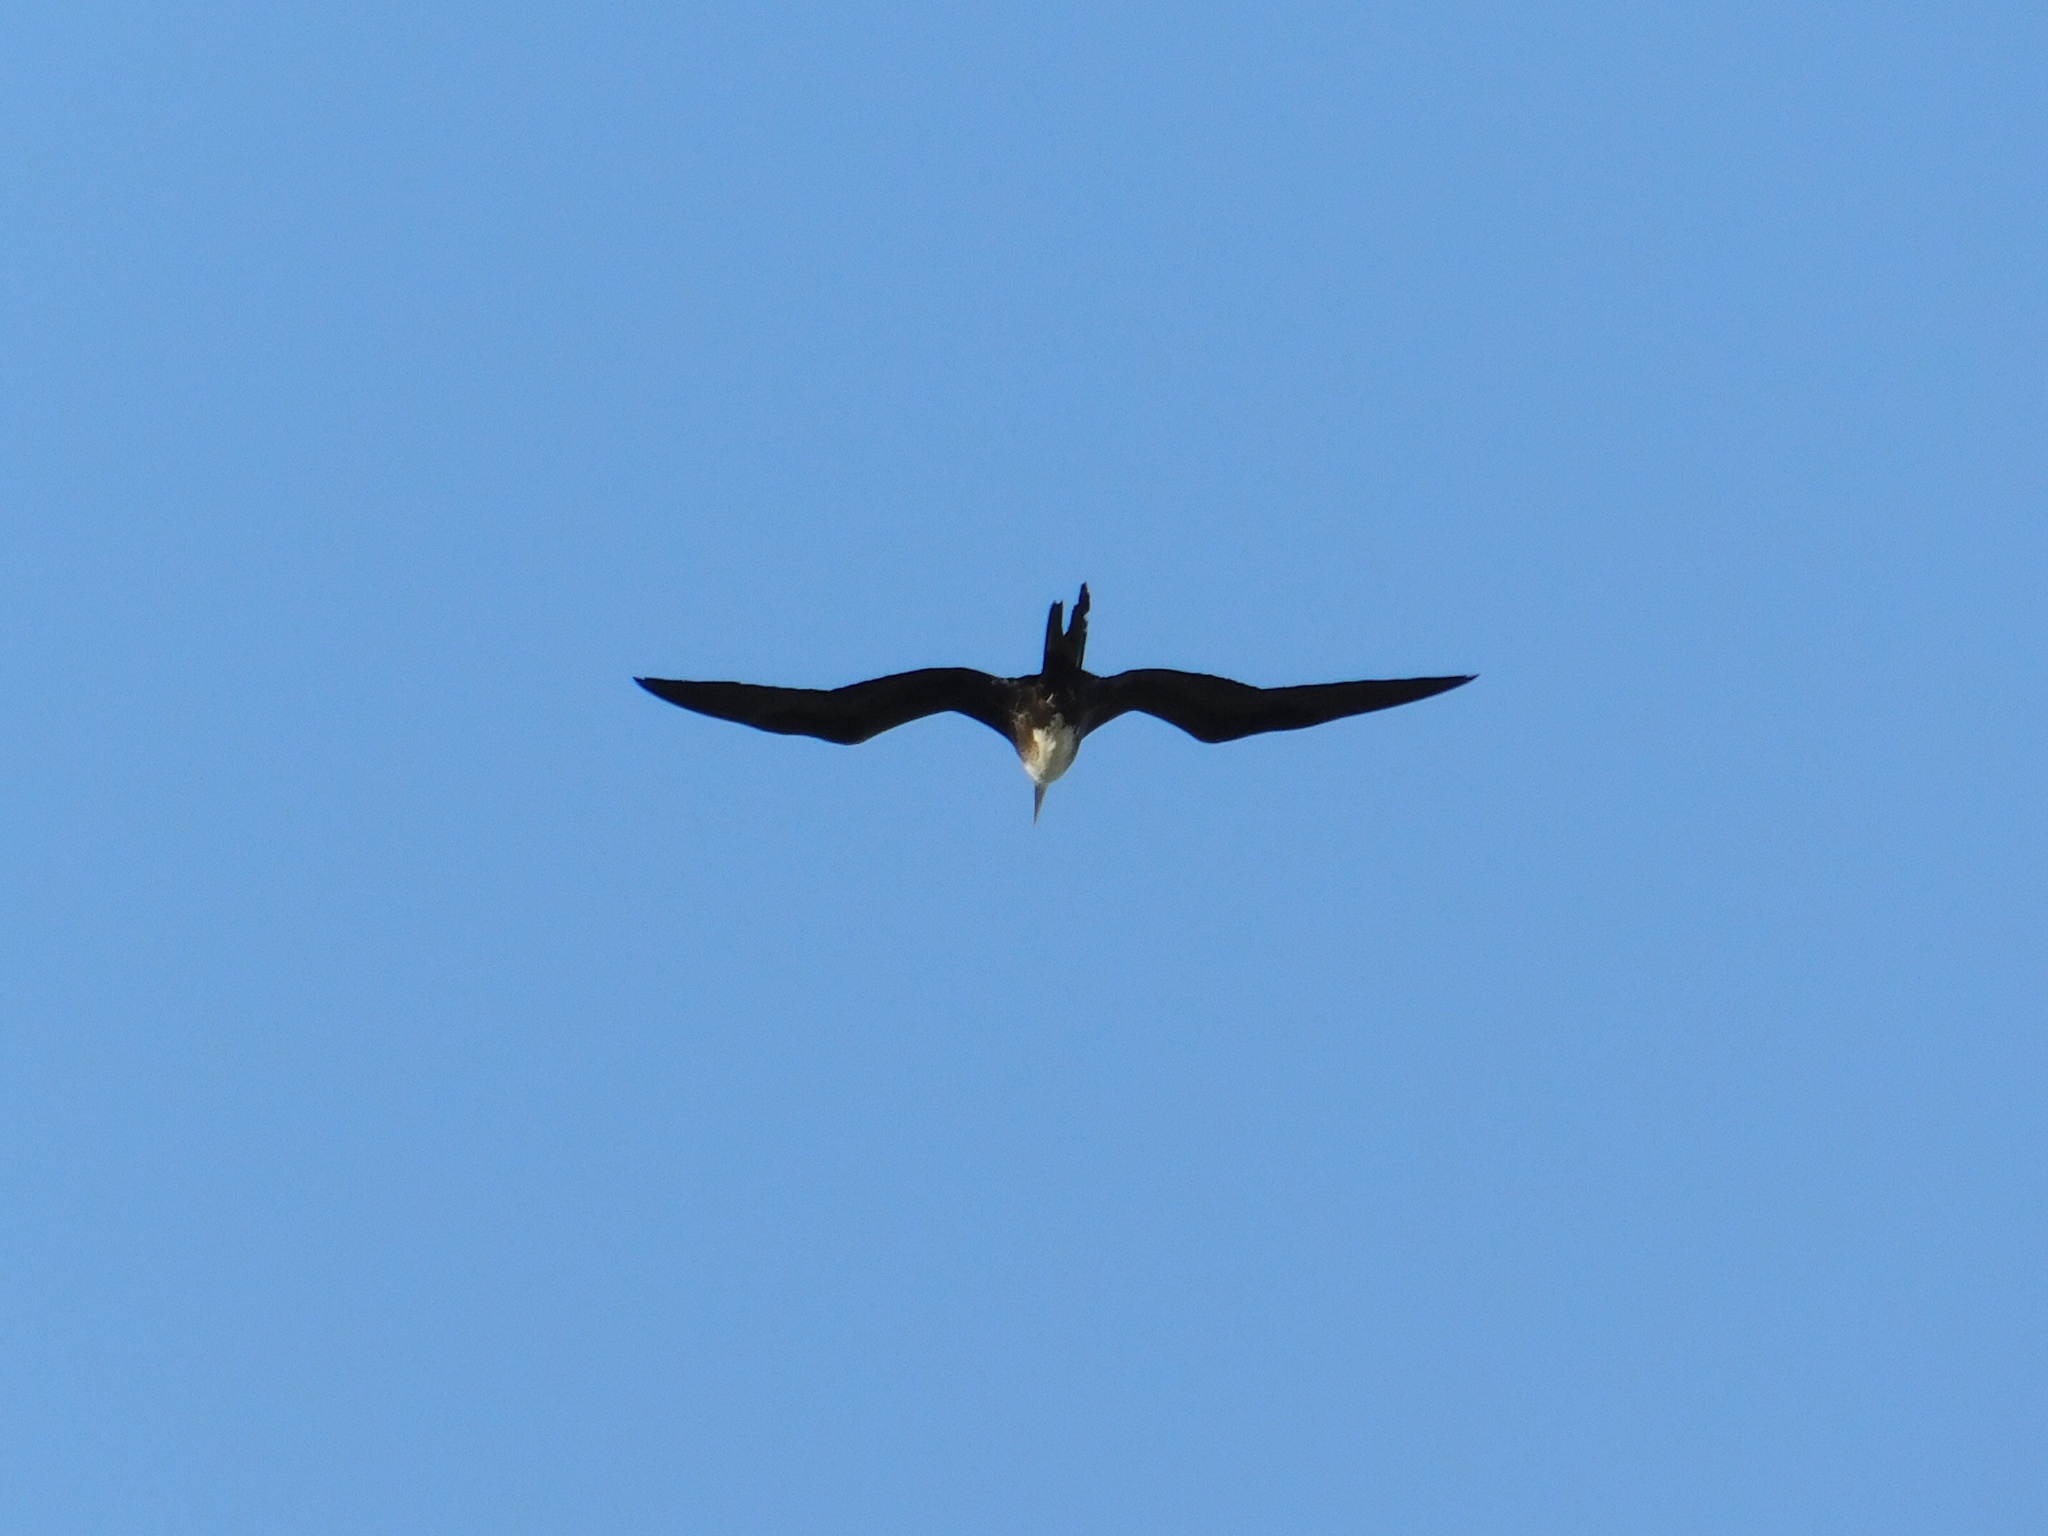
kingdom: Animalia
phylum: Chordata
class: Aves
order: Suliformes
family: Fregatidae
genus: Fregata
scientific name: Fregata magnificens
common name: Magnificent frigatebird
